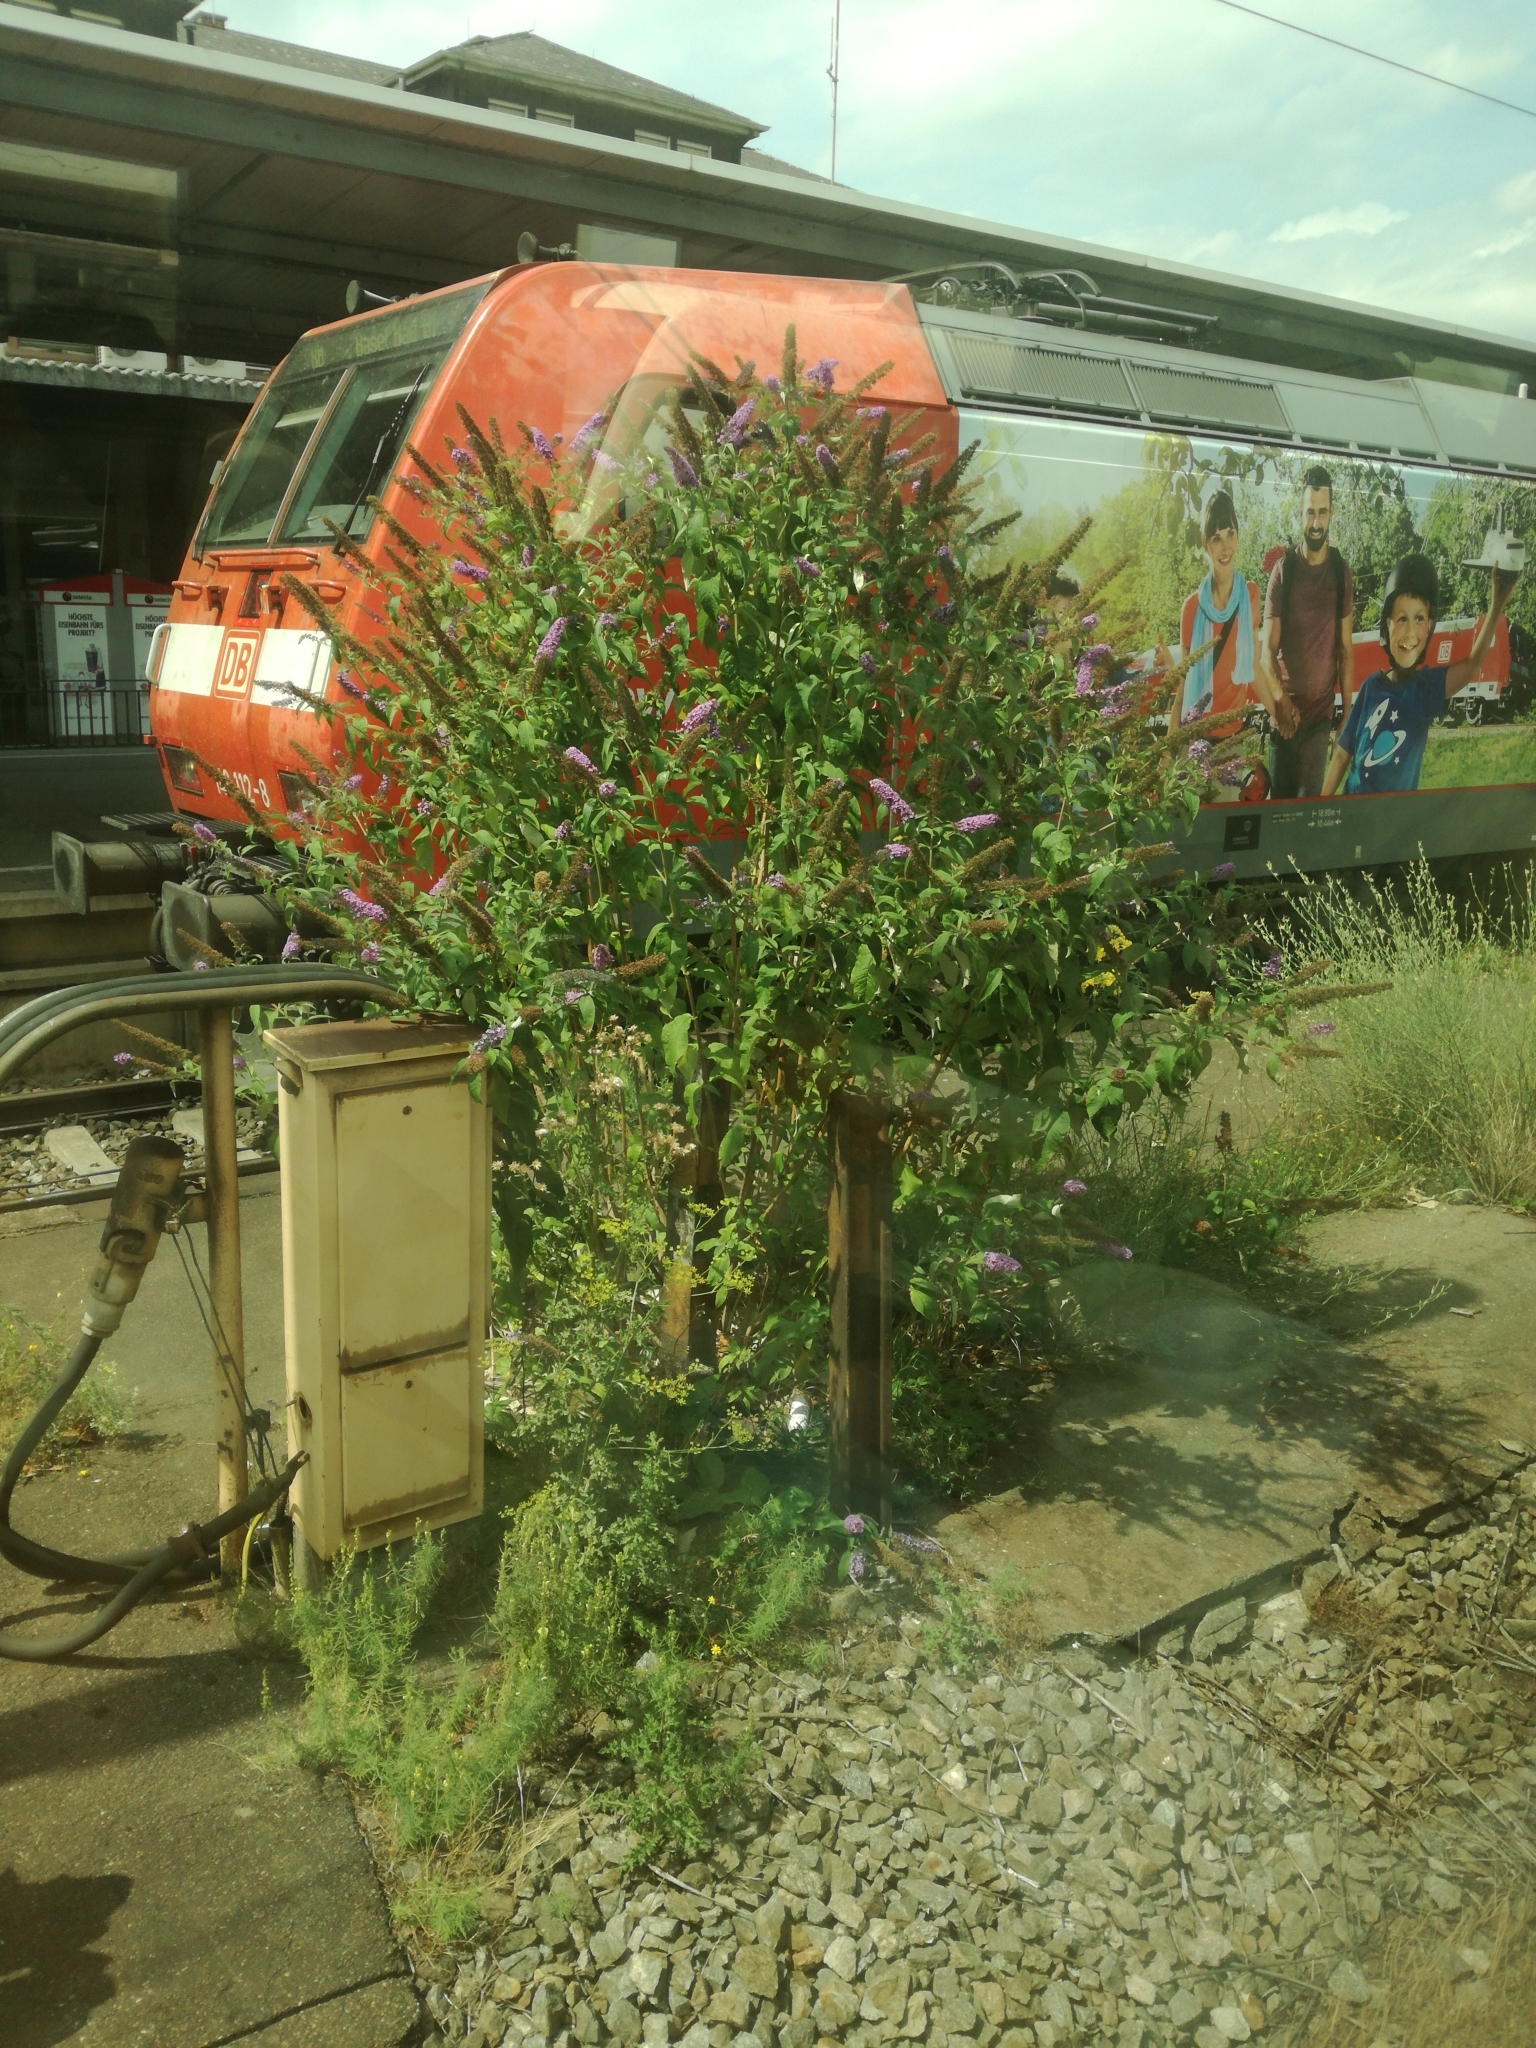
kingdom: Plantae
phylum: Tracheophyta
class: Magnoliopsida
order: Lamiales
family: Scrophulariaceae
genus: Buddleja
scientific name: Buddleja davidii
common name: Butterfly-bush
